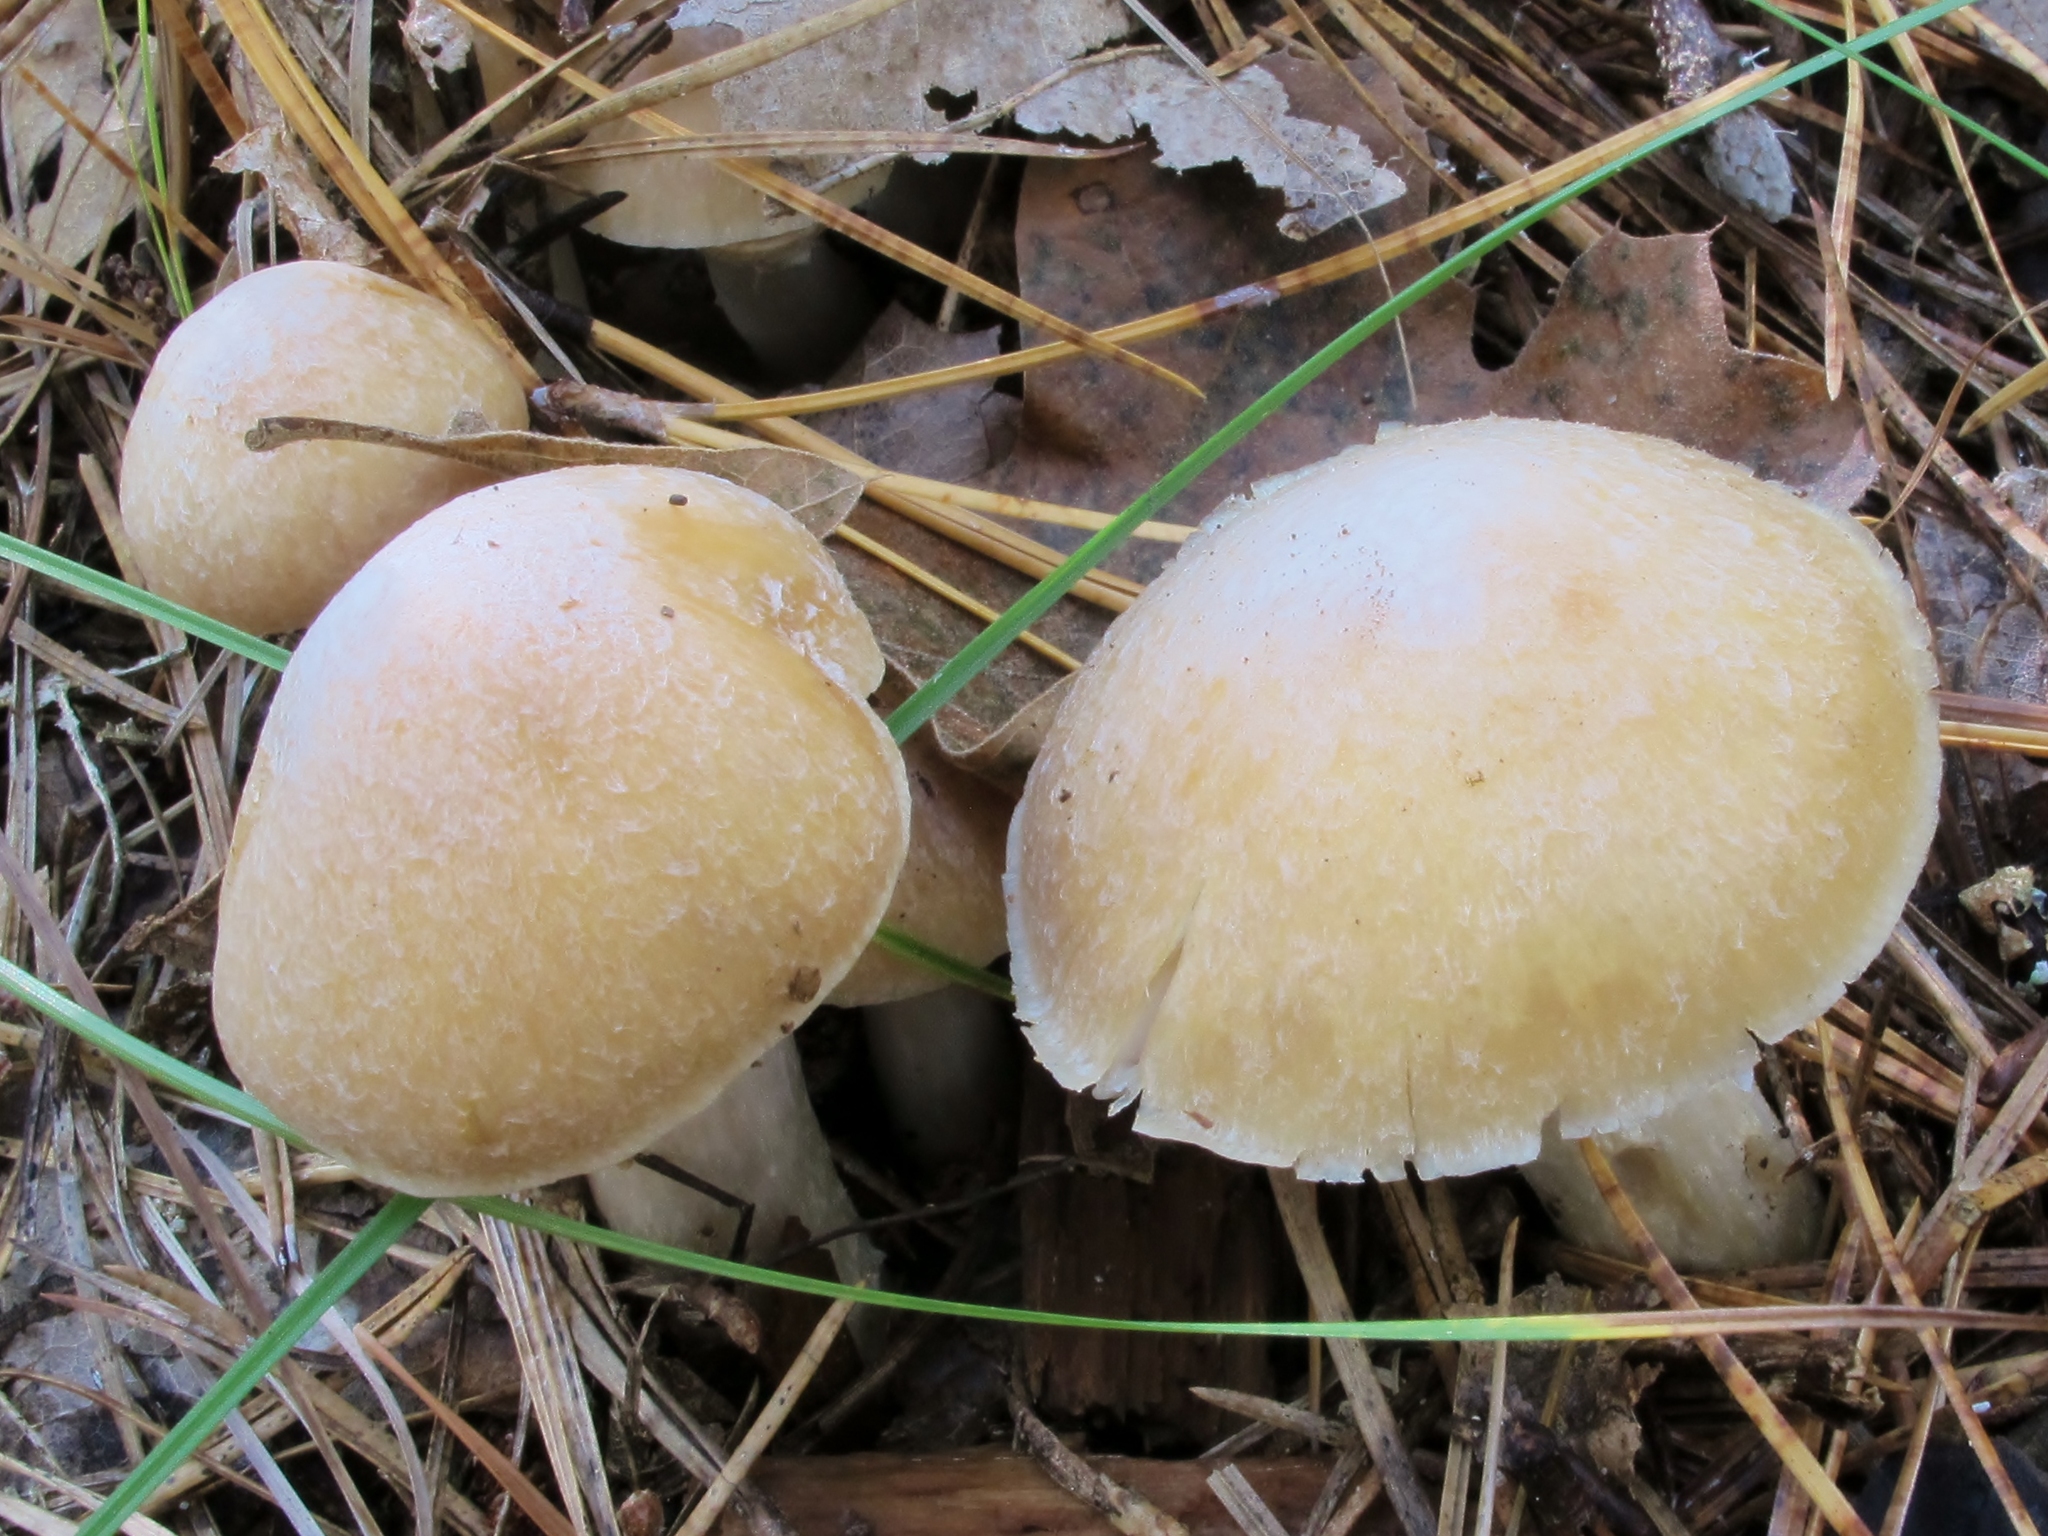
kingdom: Fungi
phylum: Basidiomycota
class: Agaricomycetes
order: Agaricales
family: Cortinariaceae
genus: Cortinarius
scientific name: Cortinarius caperatus
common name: The gypsy
